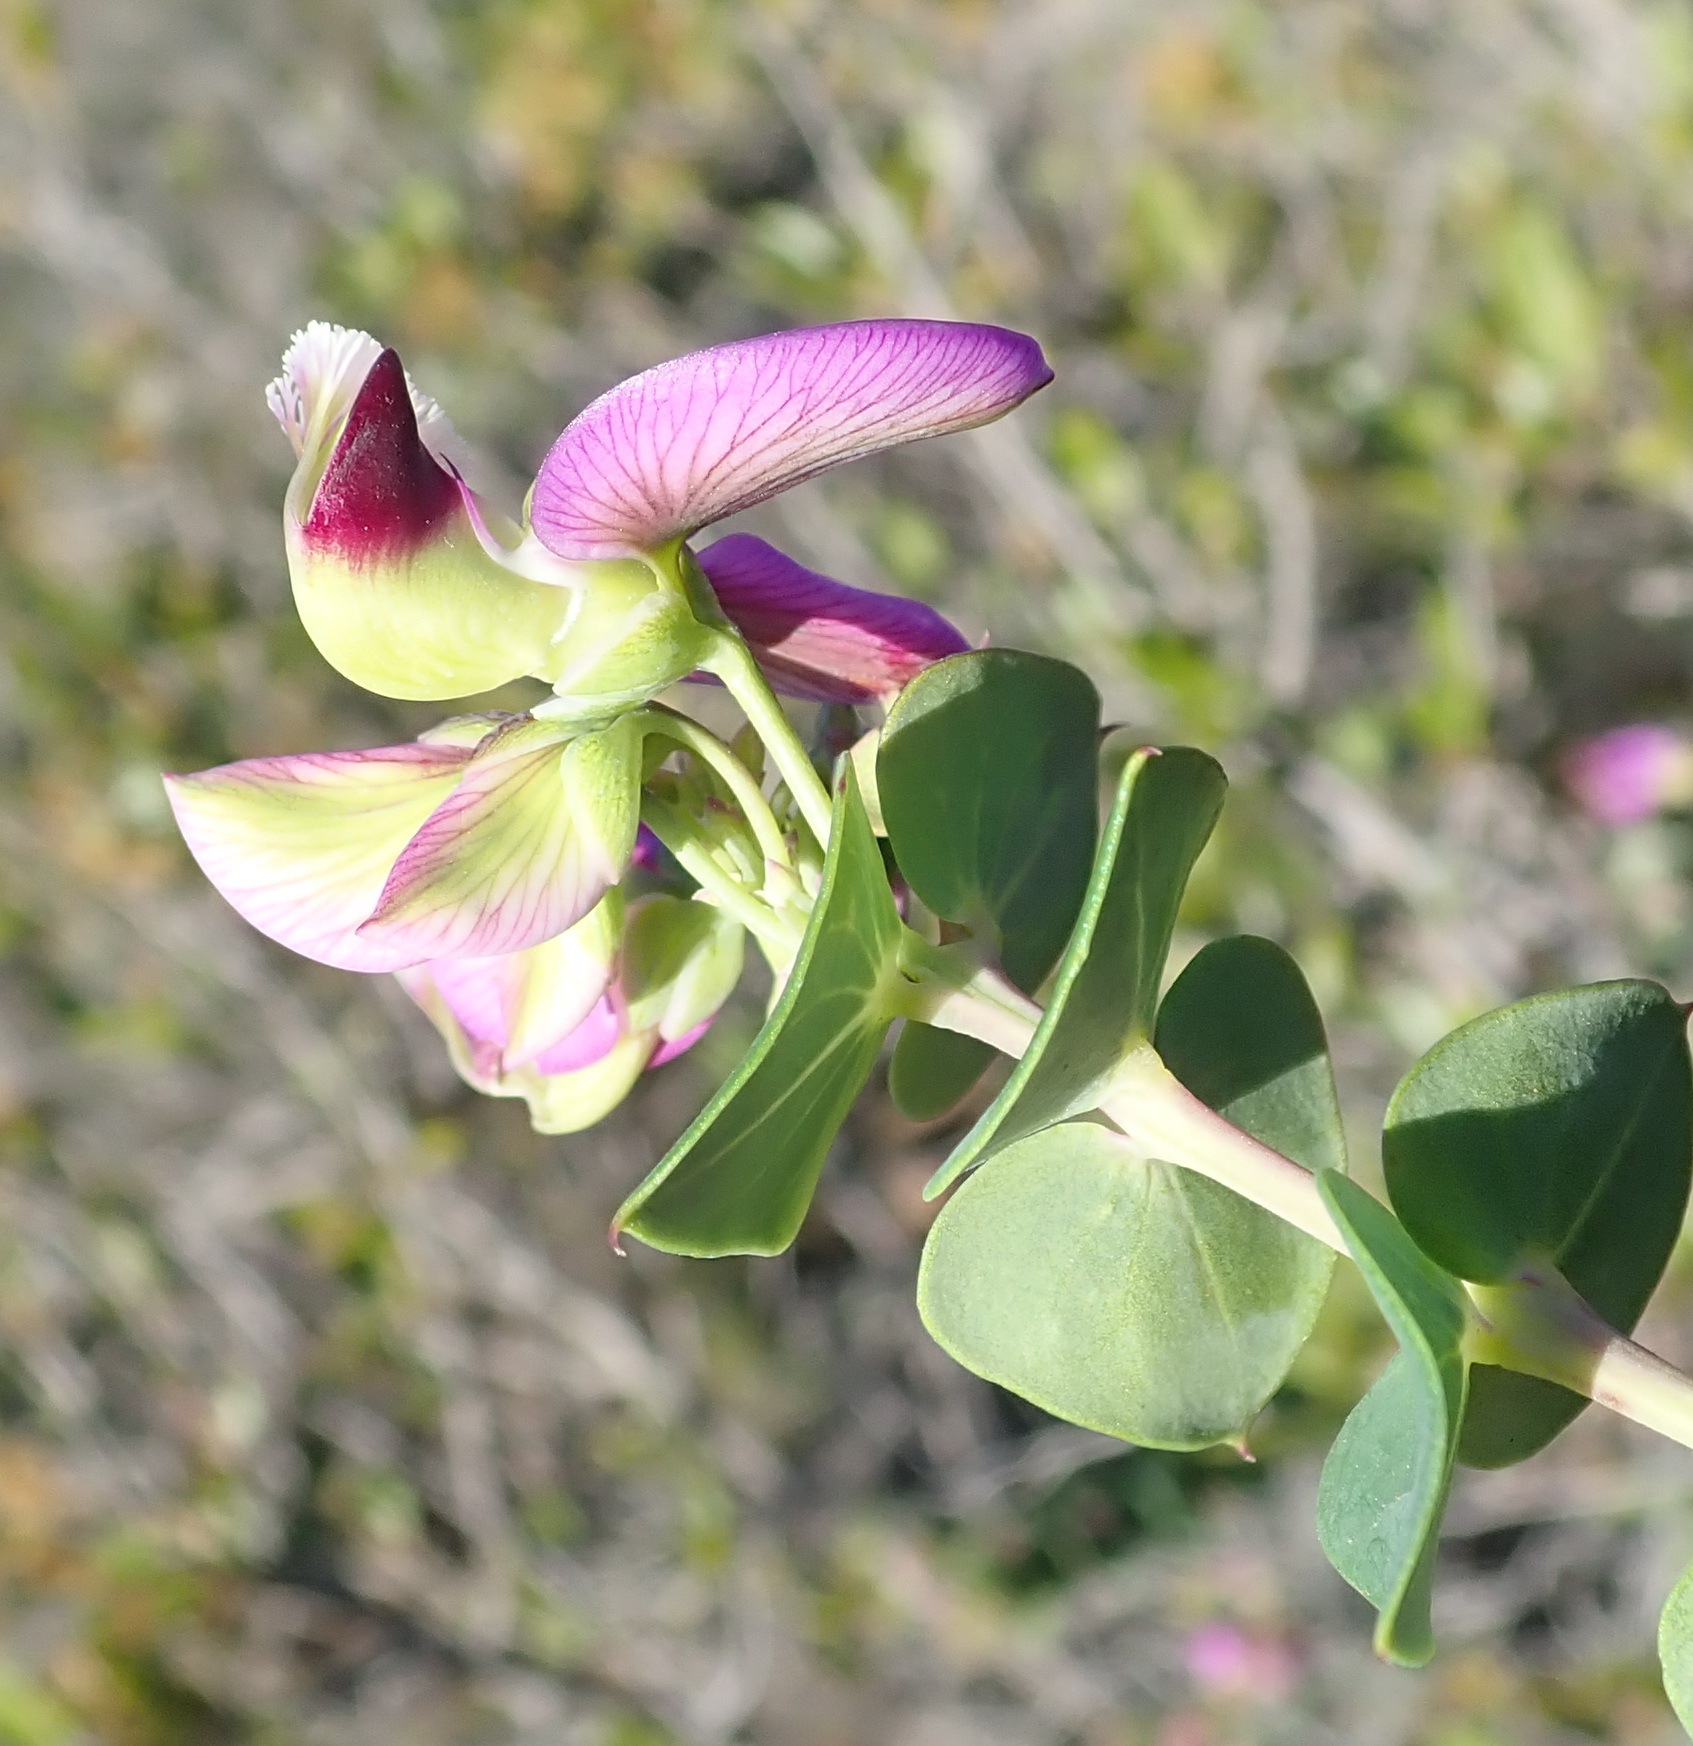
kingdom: Plantae
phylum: Tracheophyta
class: Magnoliopsida
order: Fabales
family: Polygalaceae
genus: Polygala
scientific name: Polygala fruticosa
